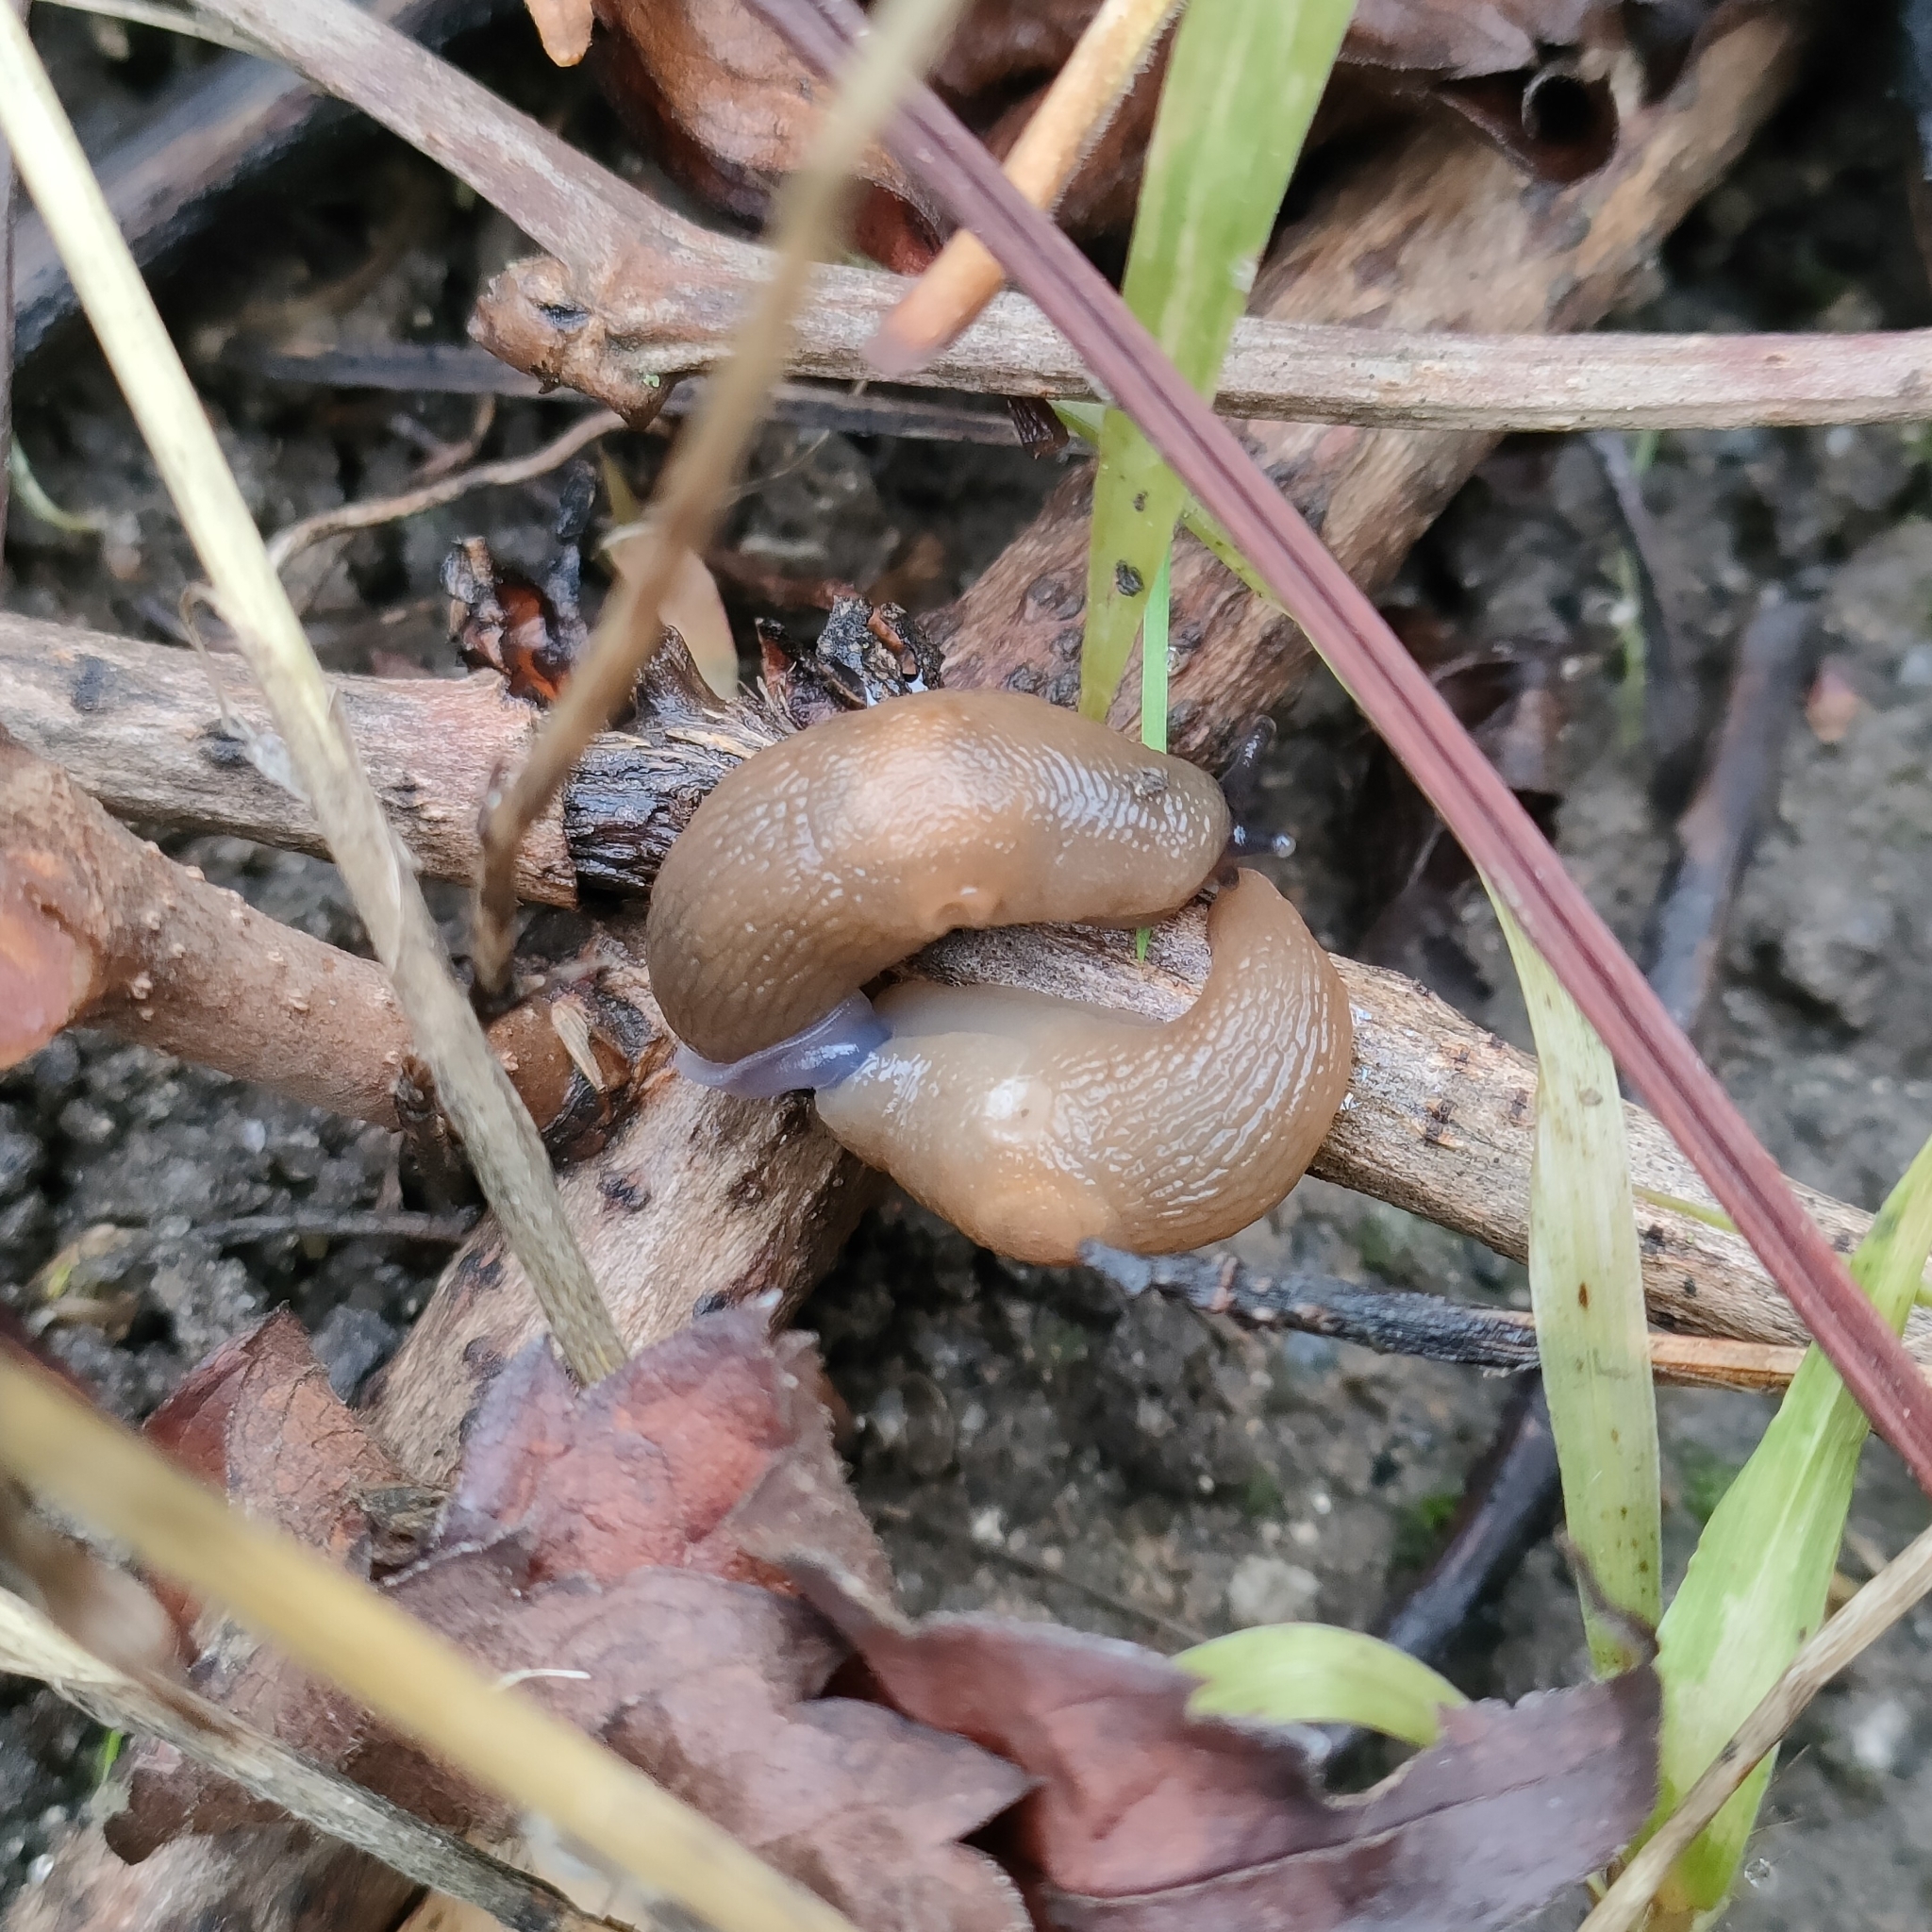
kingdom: Animalia
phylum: Mollusca
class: Gastropoda
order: Stylommatophora
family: Agriolimacidae
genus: Krynickillus
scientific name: Krynickillus melanocephalus
